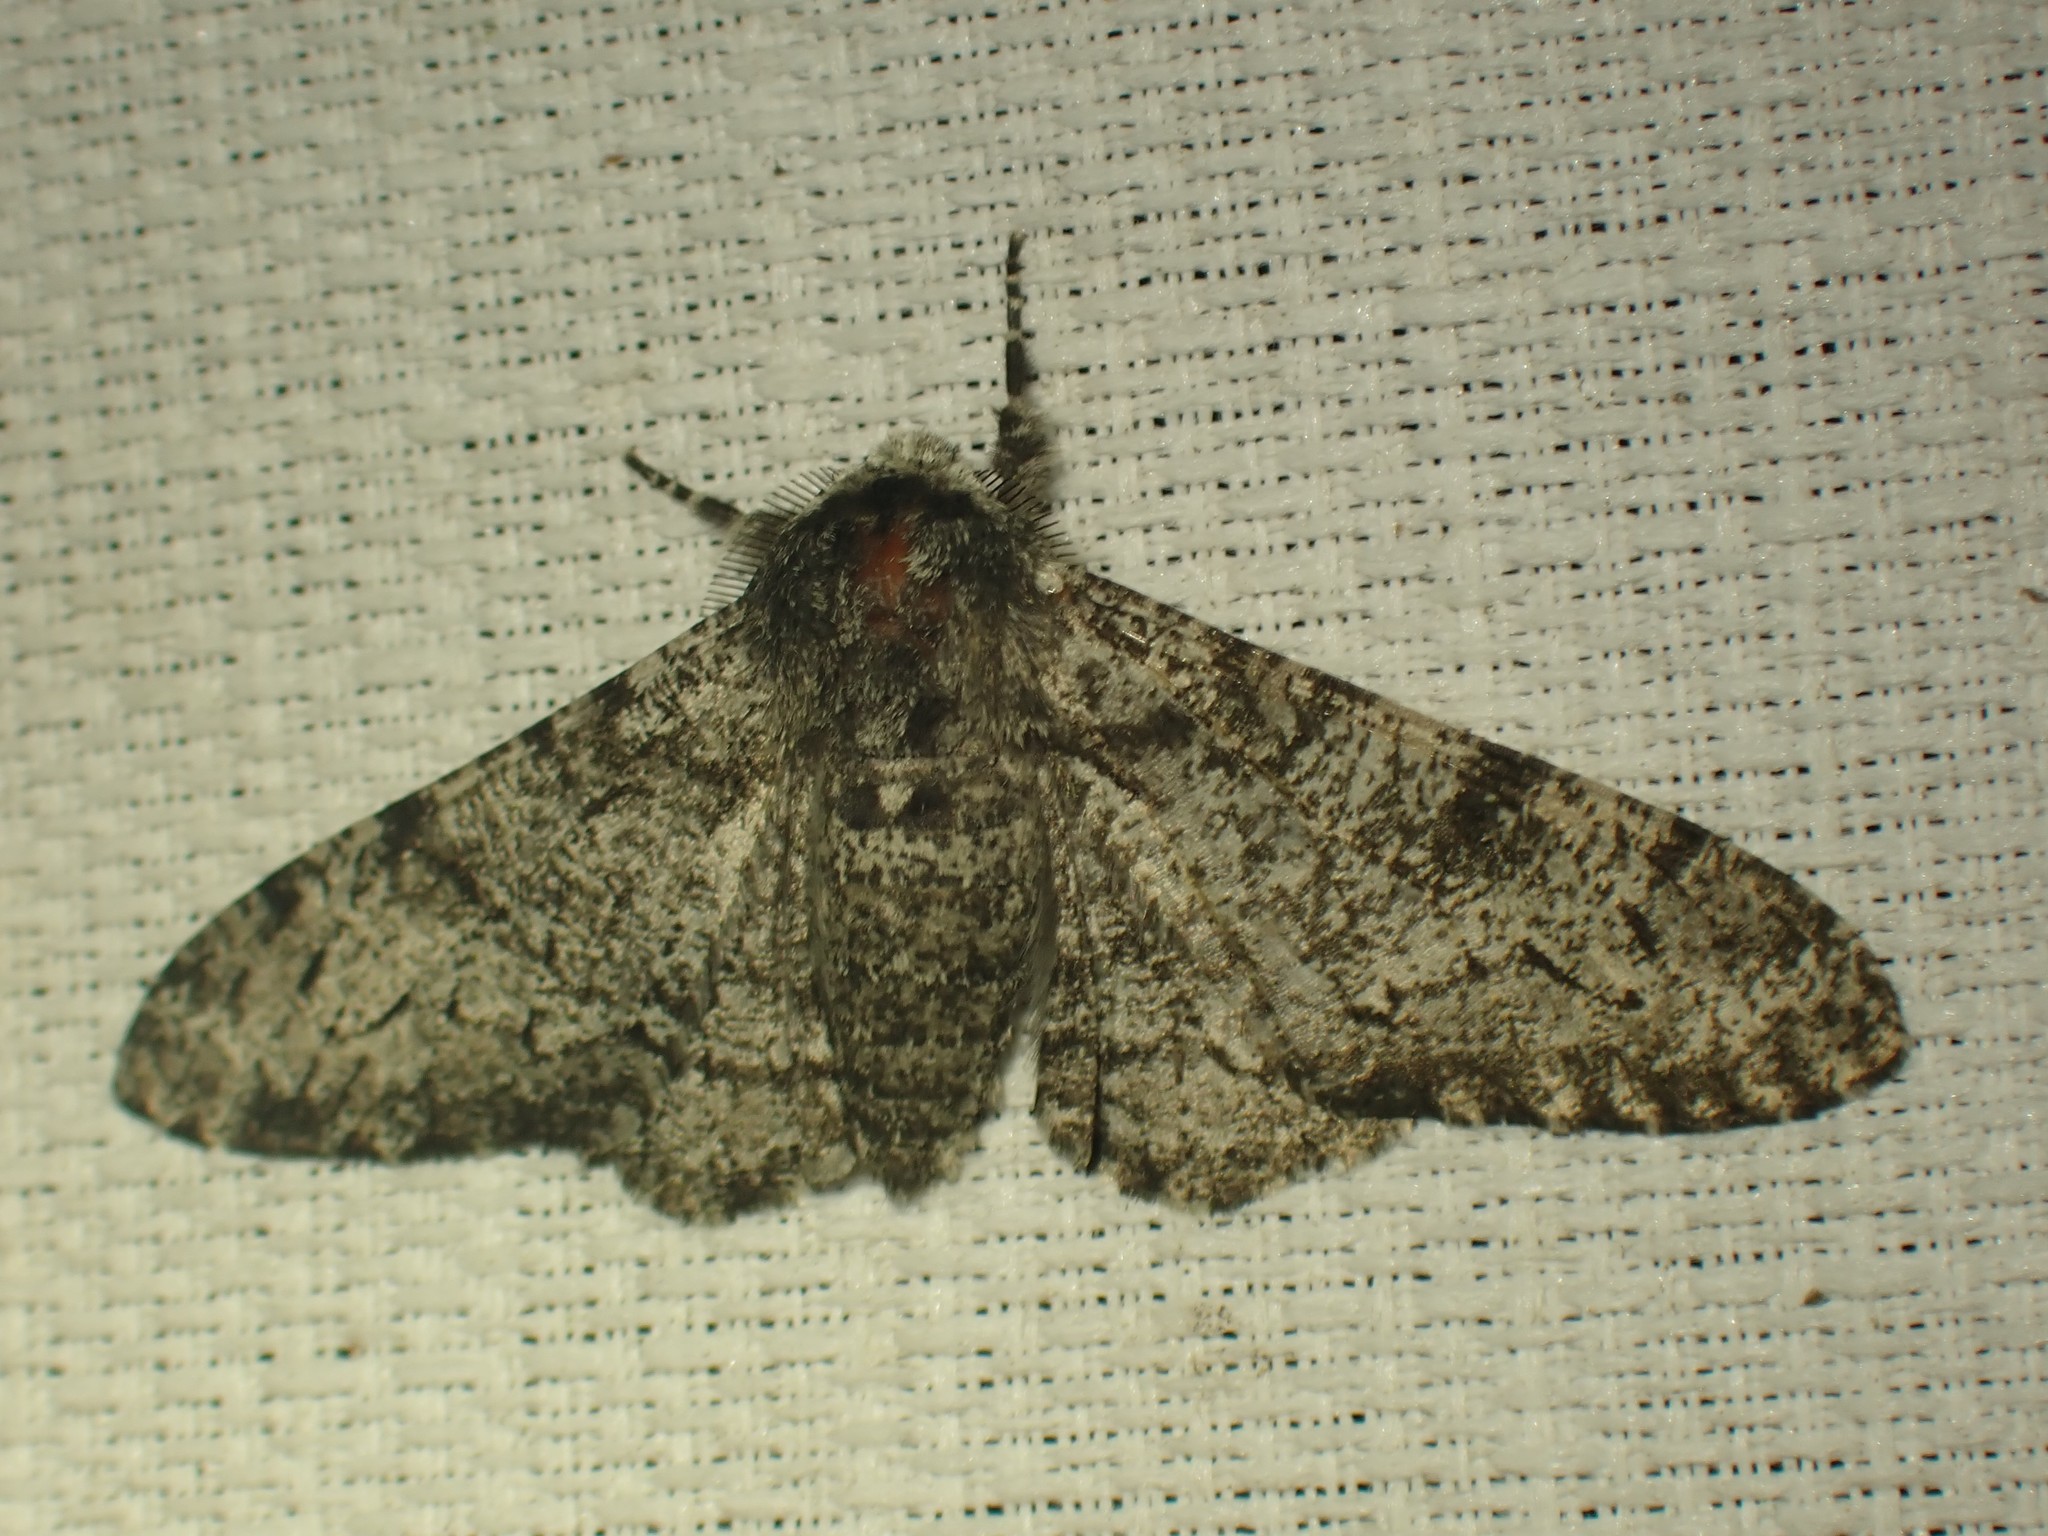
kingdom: Animalia
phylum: Arthropoda
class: Insecta
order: Lepidoptera
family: Geometridae
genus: Biston
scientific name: Biston betularia
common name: Peppered moth
